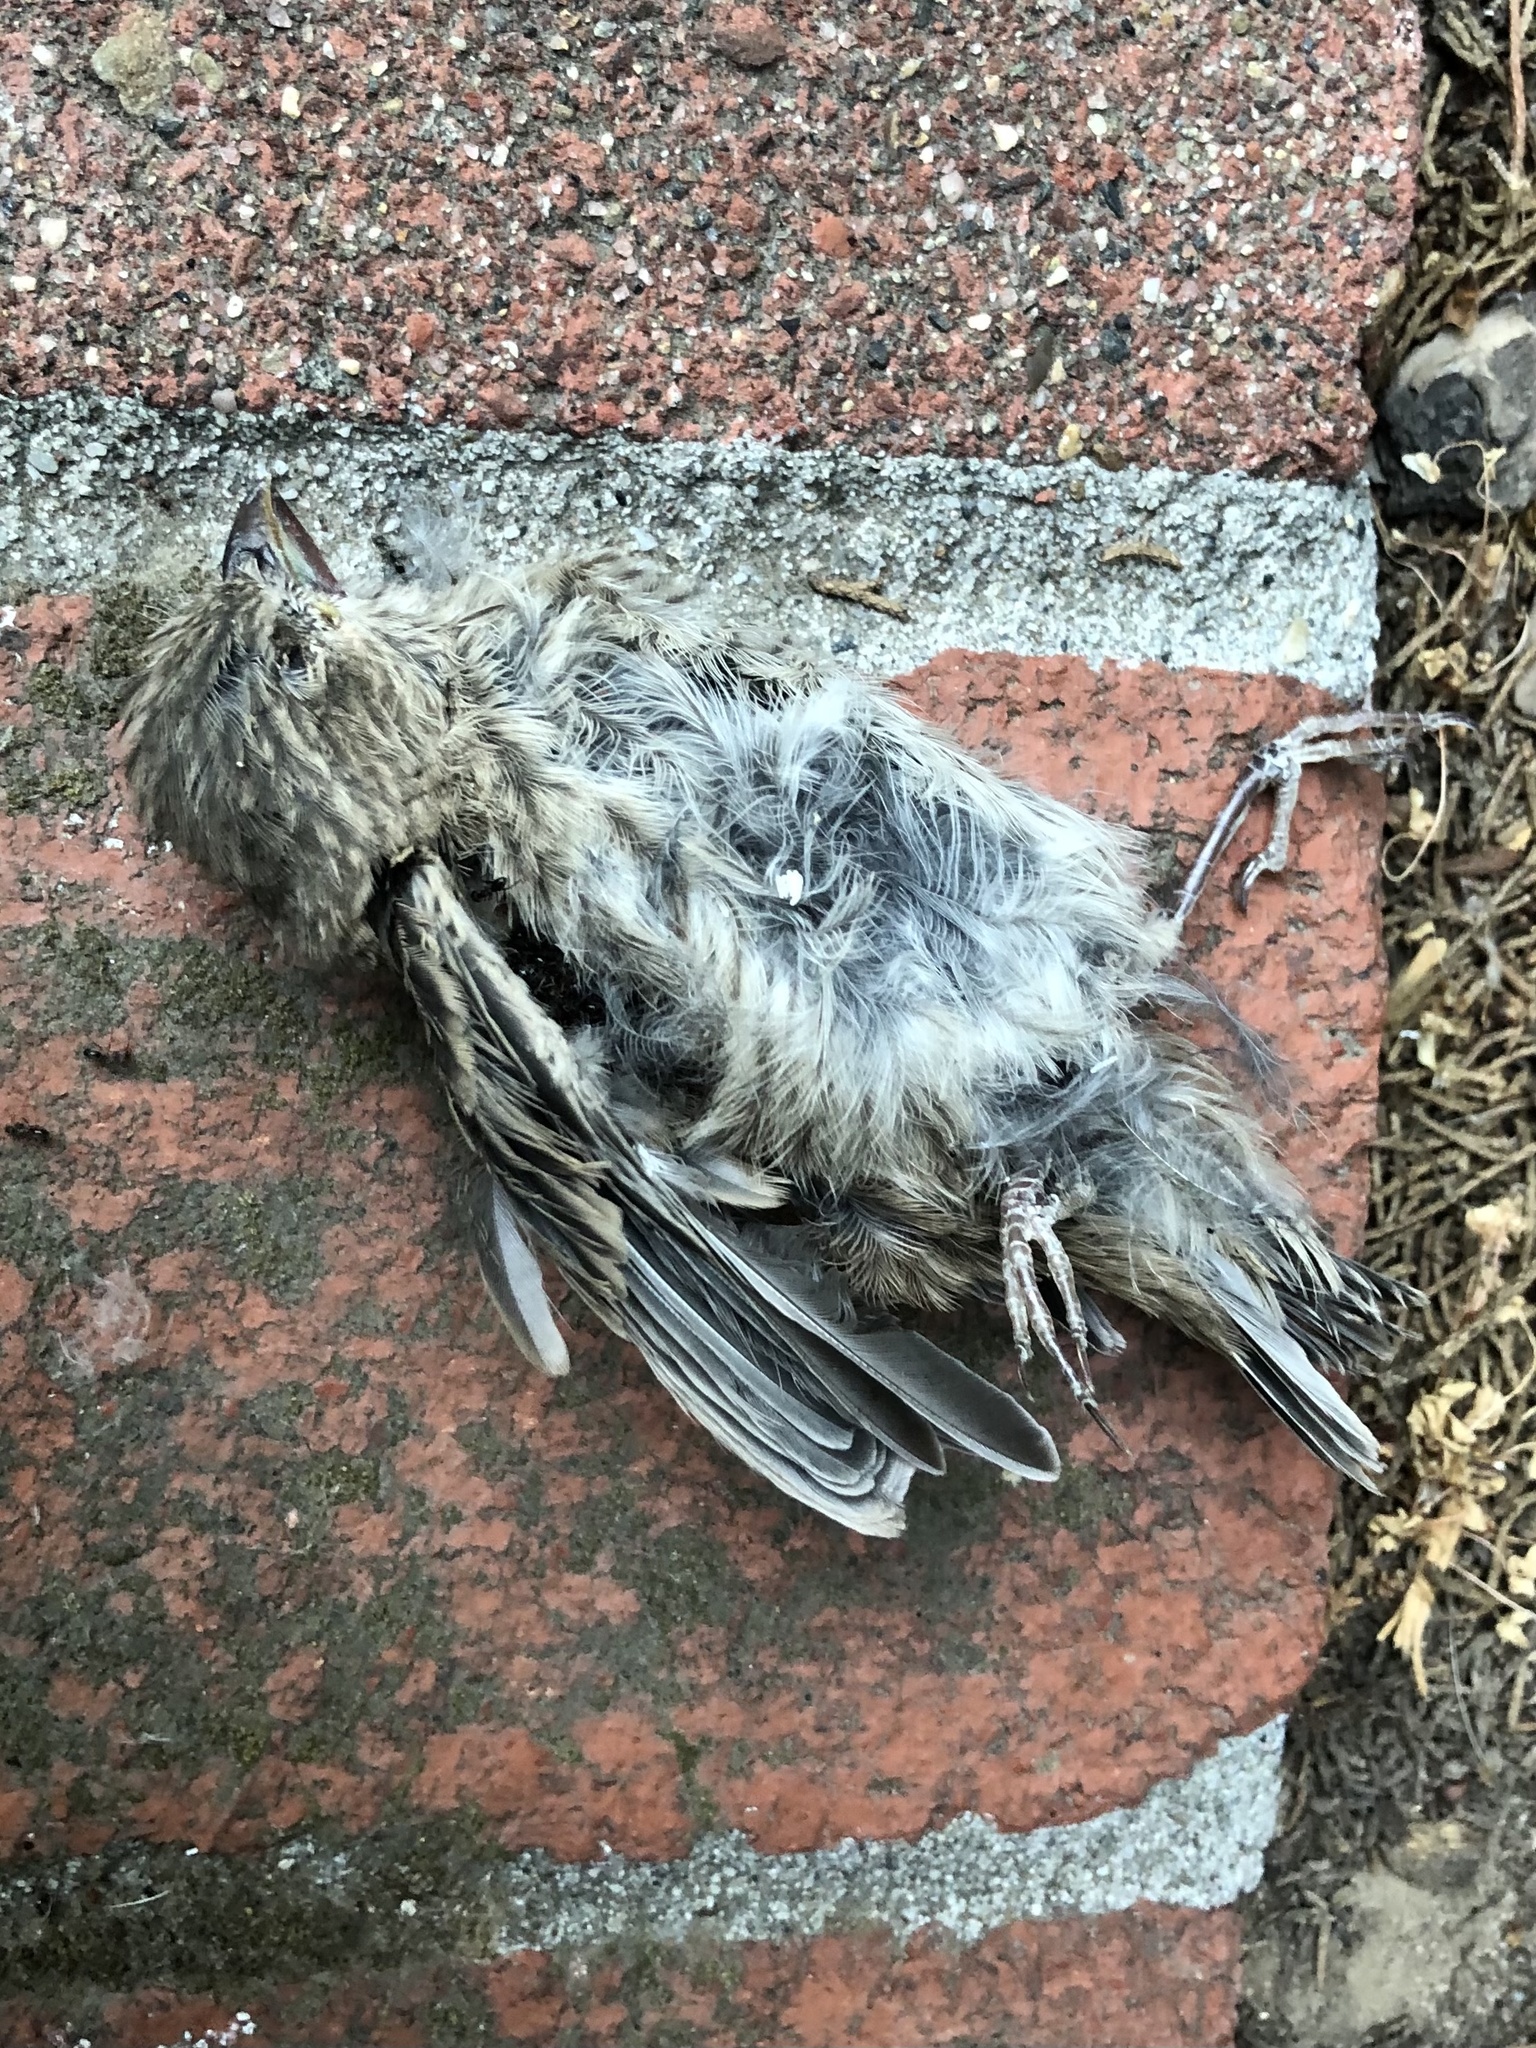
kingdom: Animalia
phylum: Chordata
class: Aves
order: Passeriformes
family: Fringillidae
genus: Haemorhous
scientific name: Haemorhous mexicanus
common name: House finch
